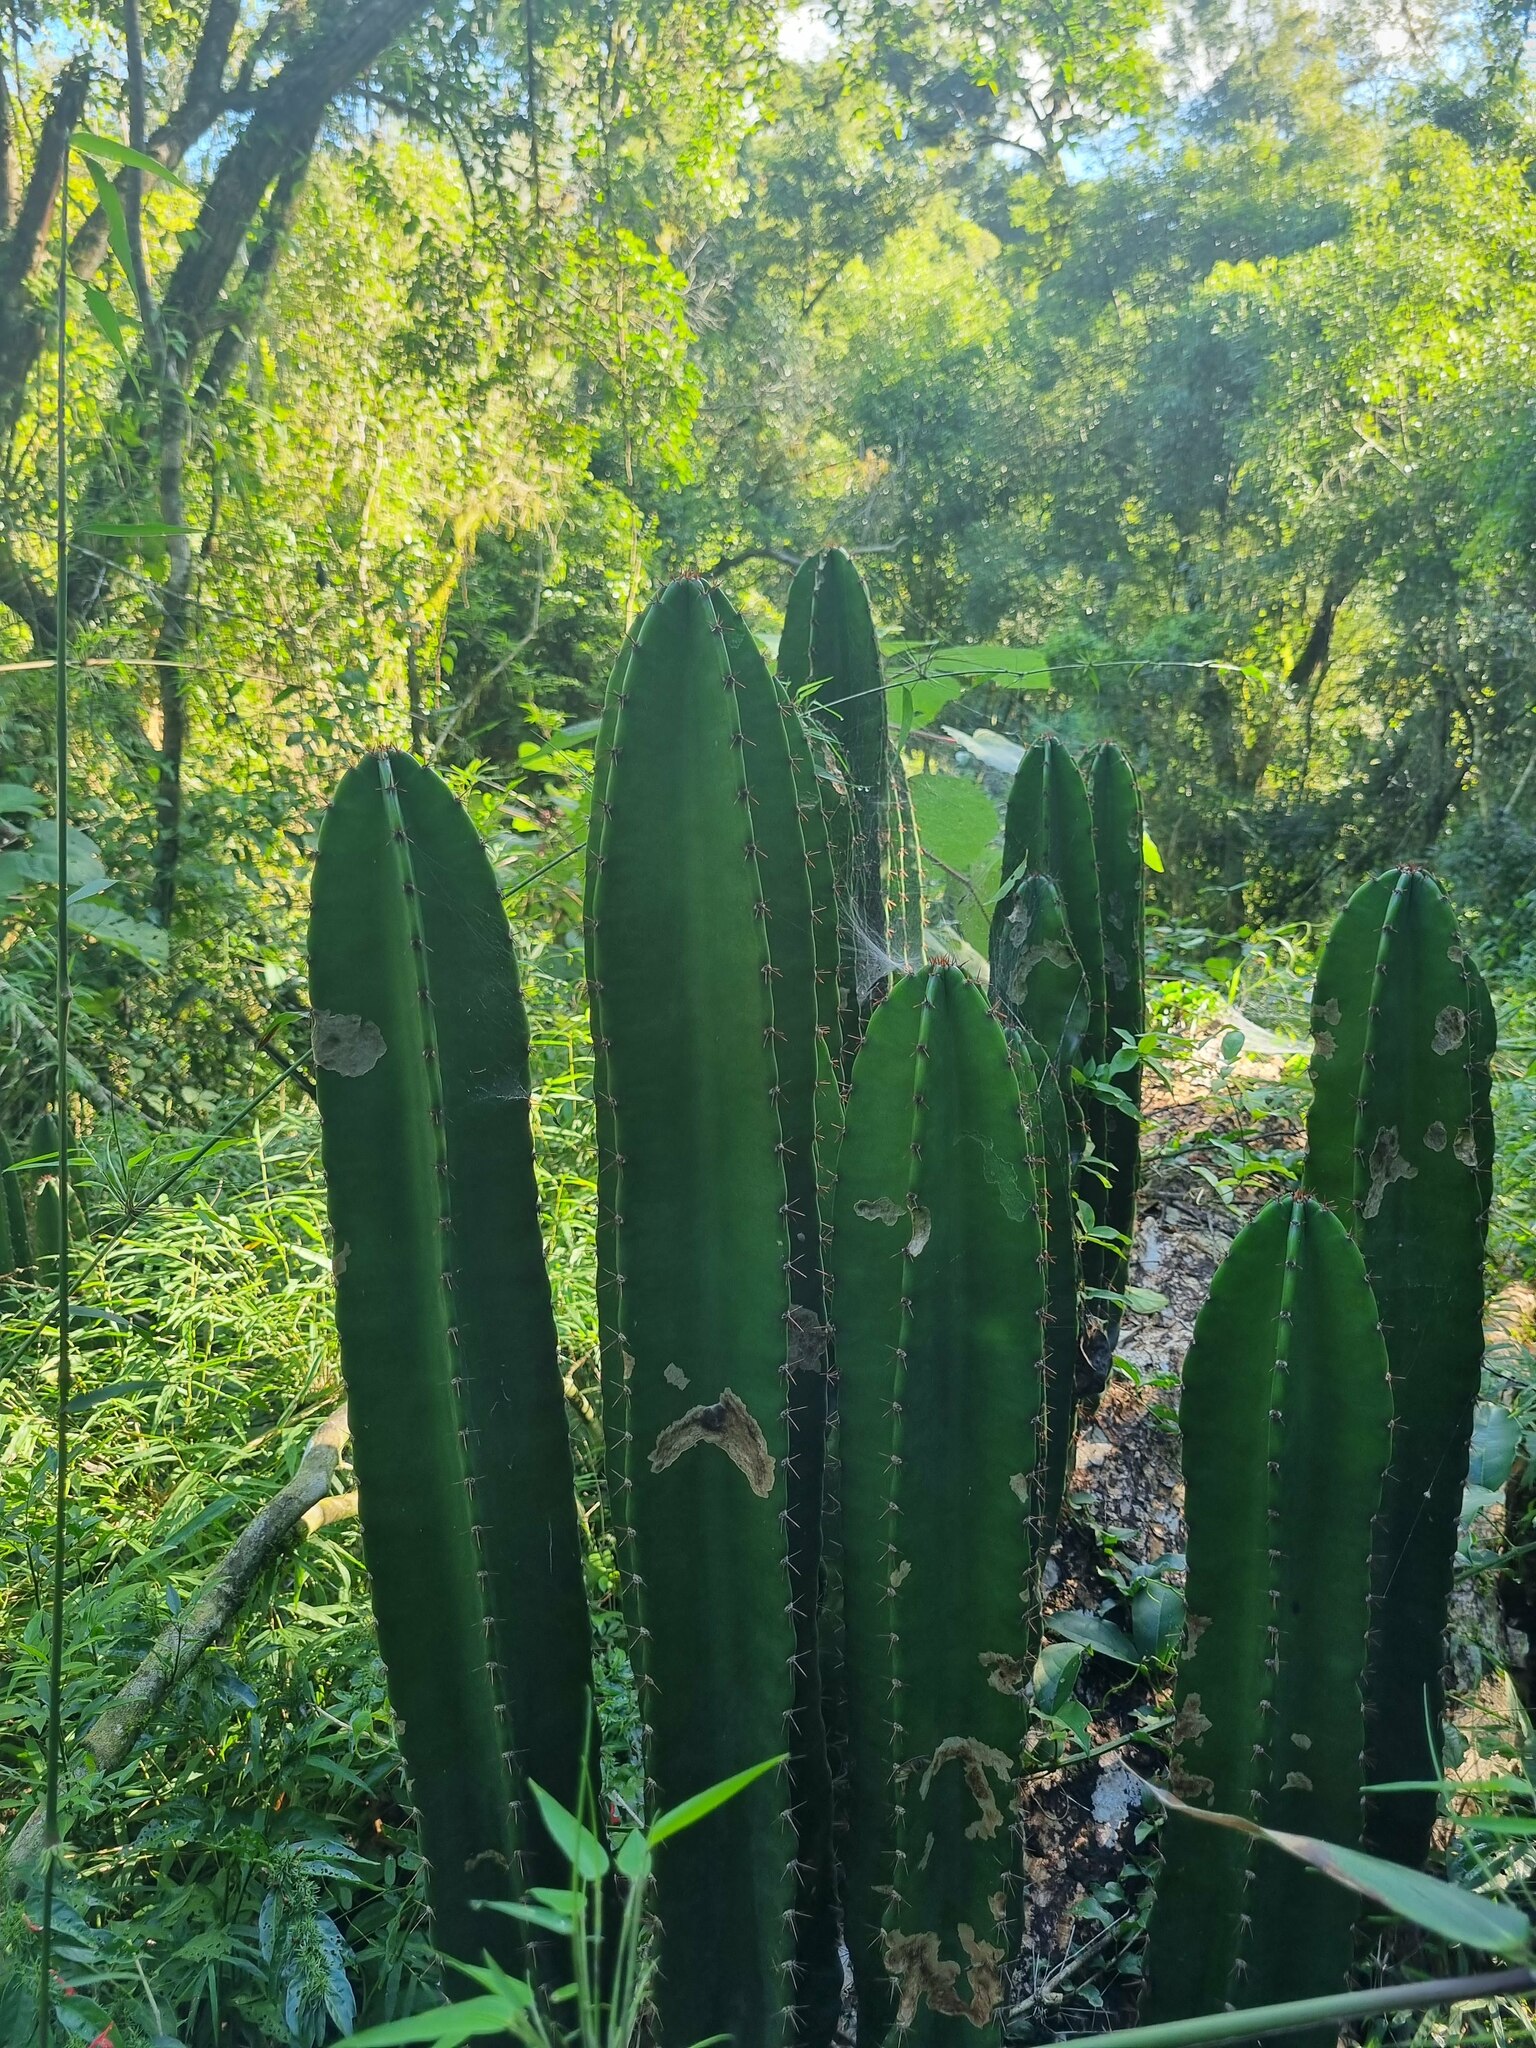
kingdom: Plantae
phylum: Tracheophyta
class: Magnoliopsida
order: Caryophyllales
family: Cactaceae
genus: Cereus
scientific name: Cereus hildmannianus
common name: Hedge cactus
